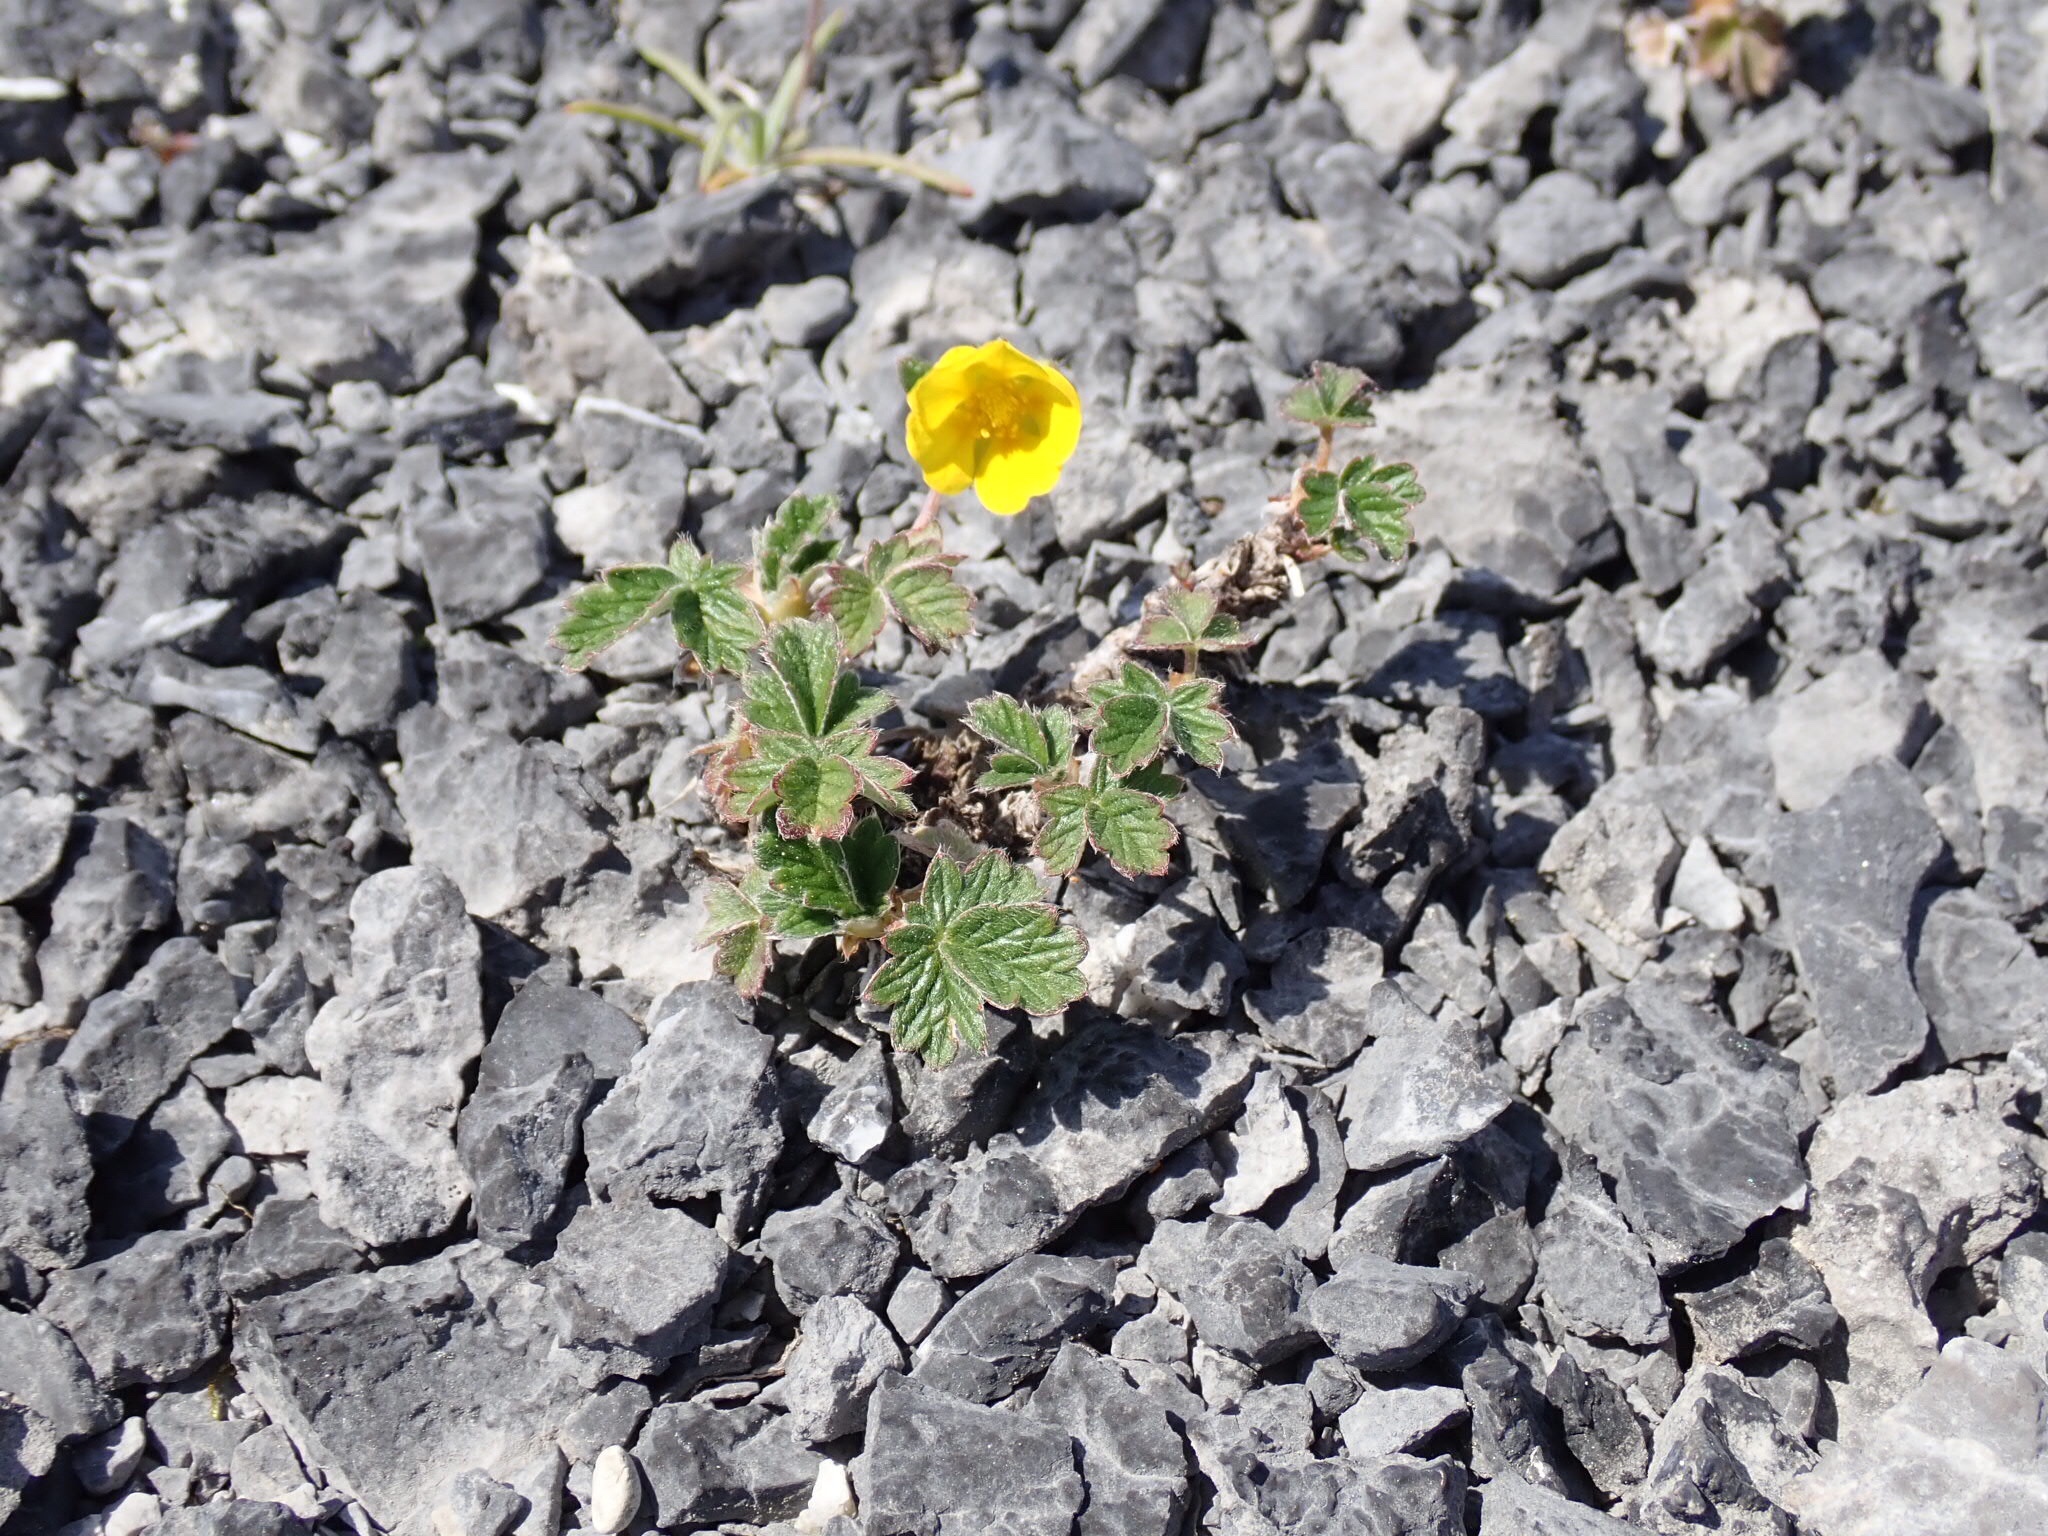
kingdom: Plantae
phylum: Tracheophyta
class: Magnoliopsida
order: Rosales
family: Rosaceae
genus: Potentilla
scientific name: Potentilla nivea
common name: Snow cinquefoil
